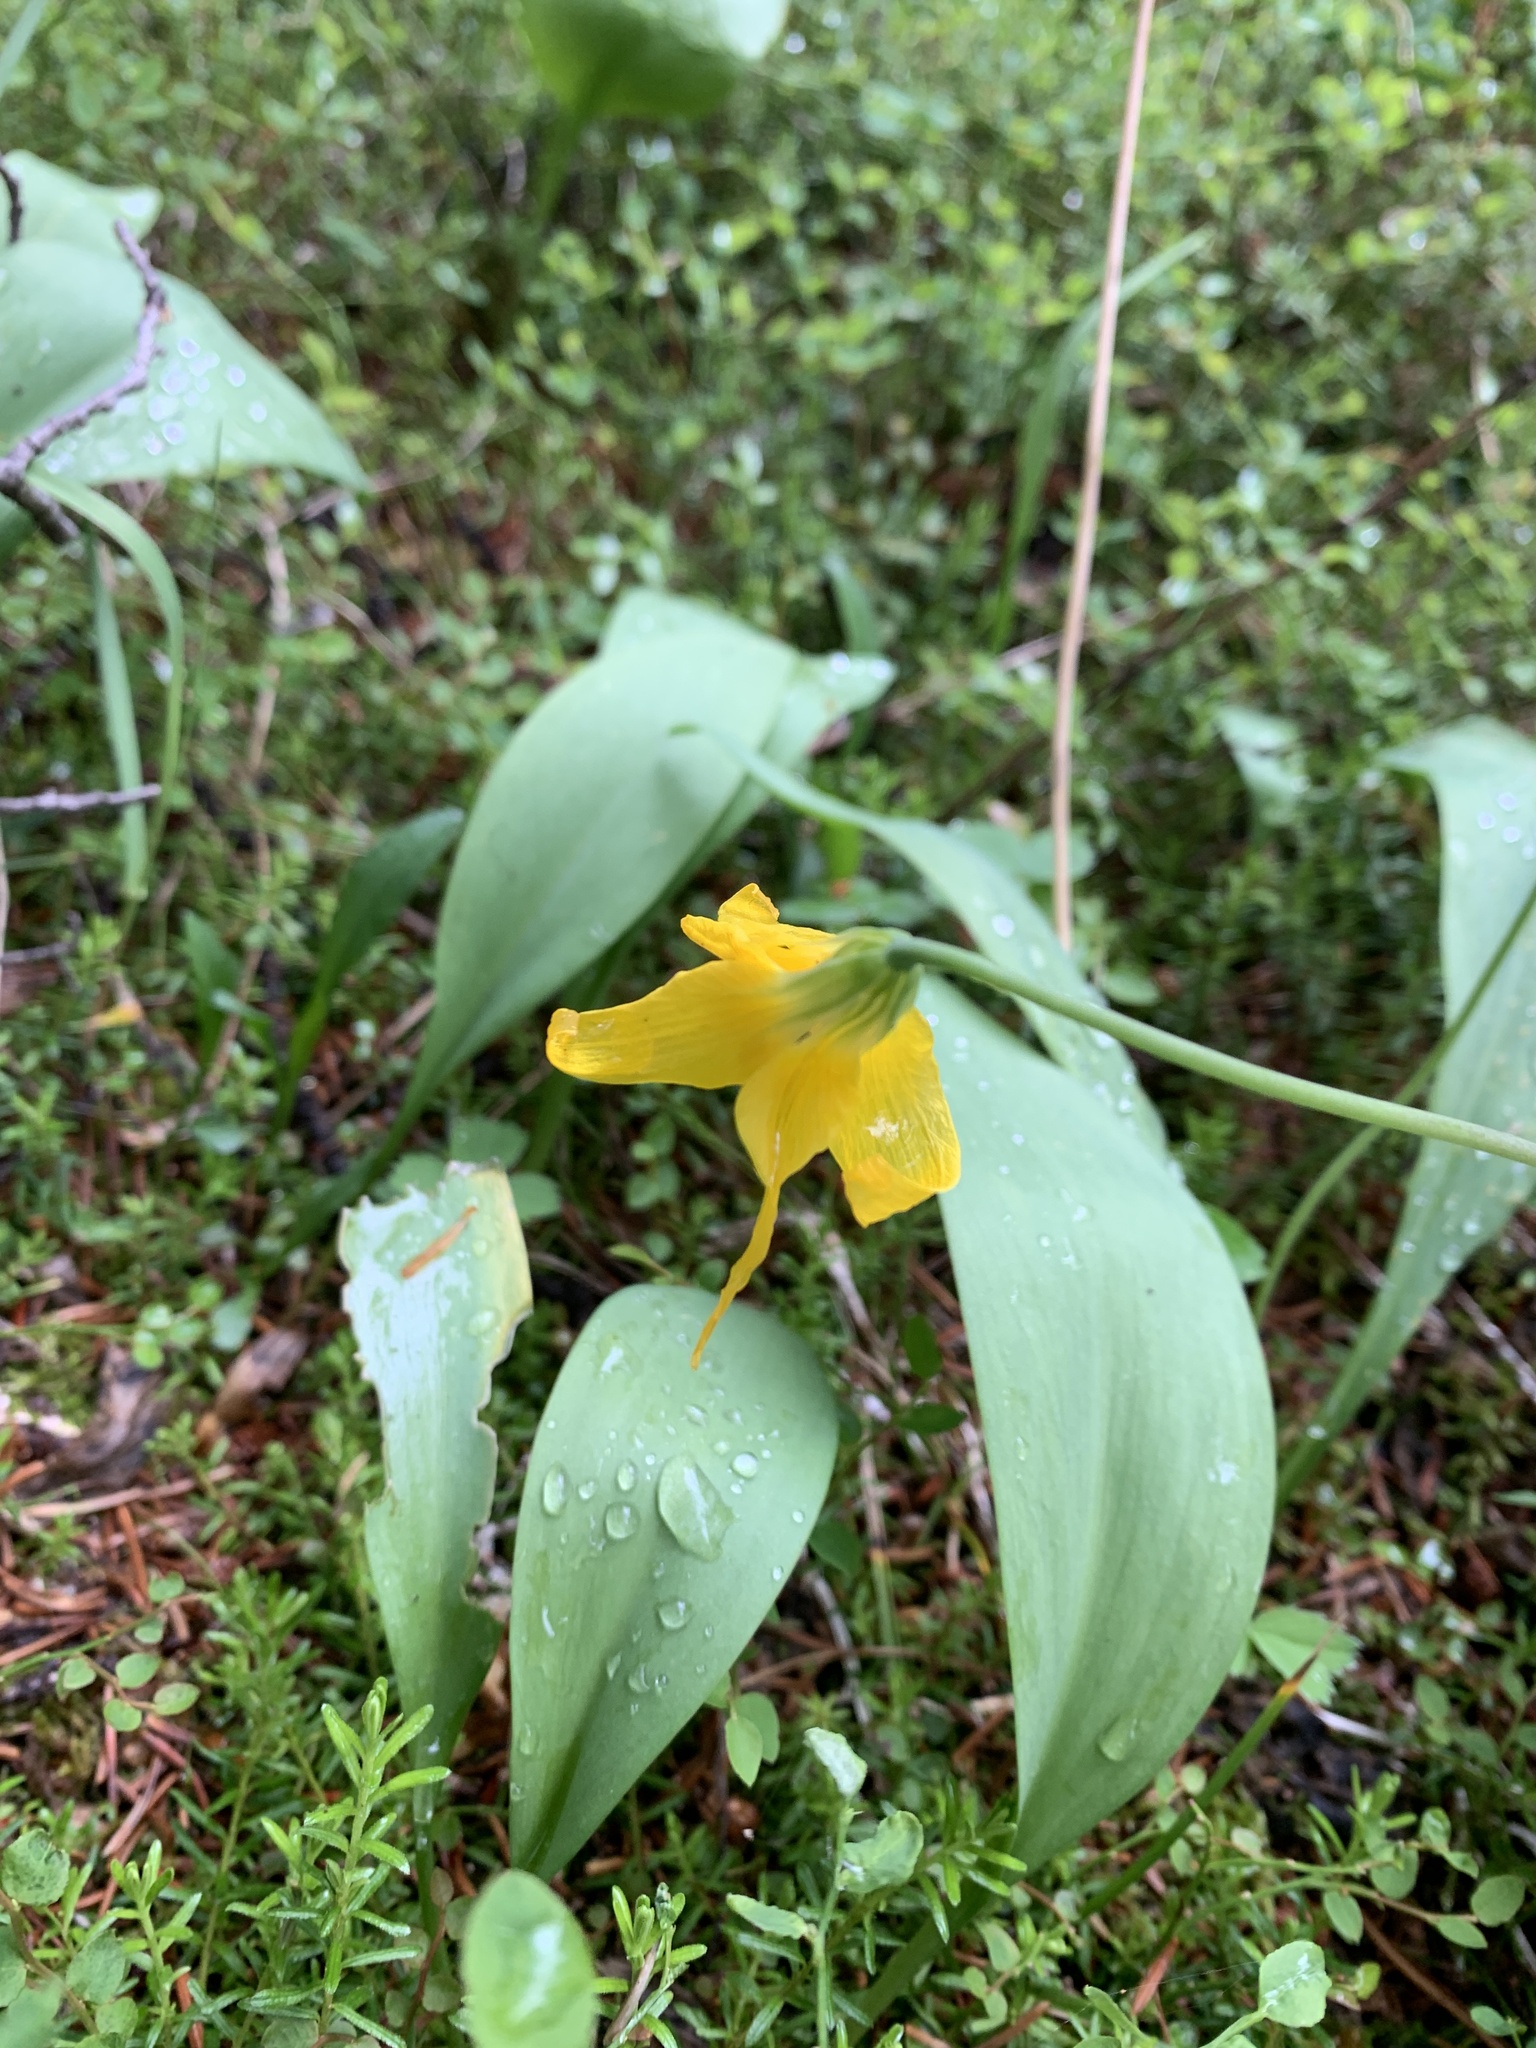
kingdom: Plantae
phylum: Tracheophyta
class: Liliopsida
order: Liliales
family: Liliaceae
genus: Erythronium
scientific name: Erythronium grandiflorum
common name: Avalanche-lily
